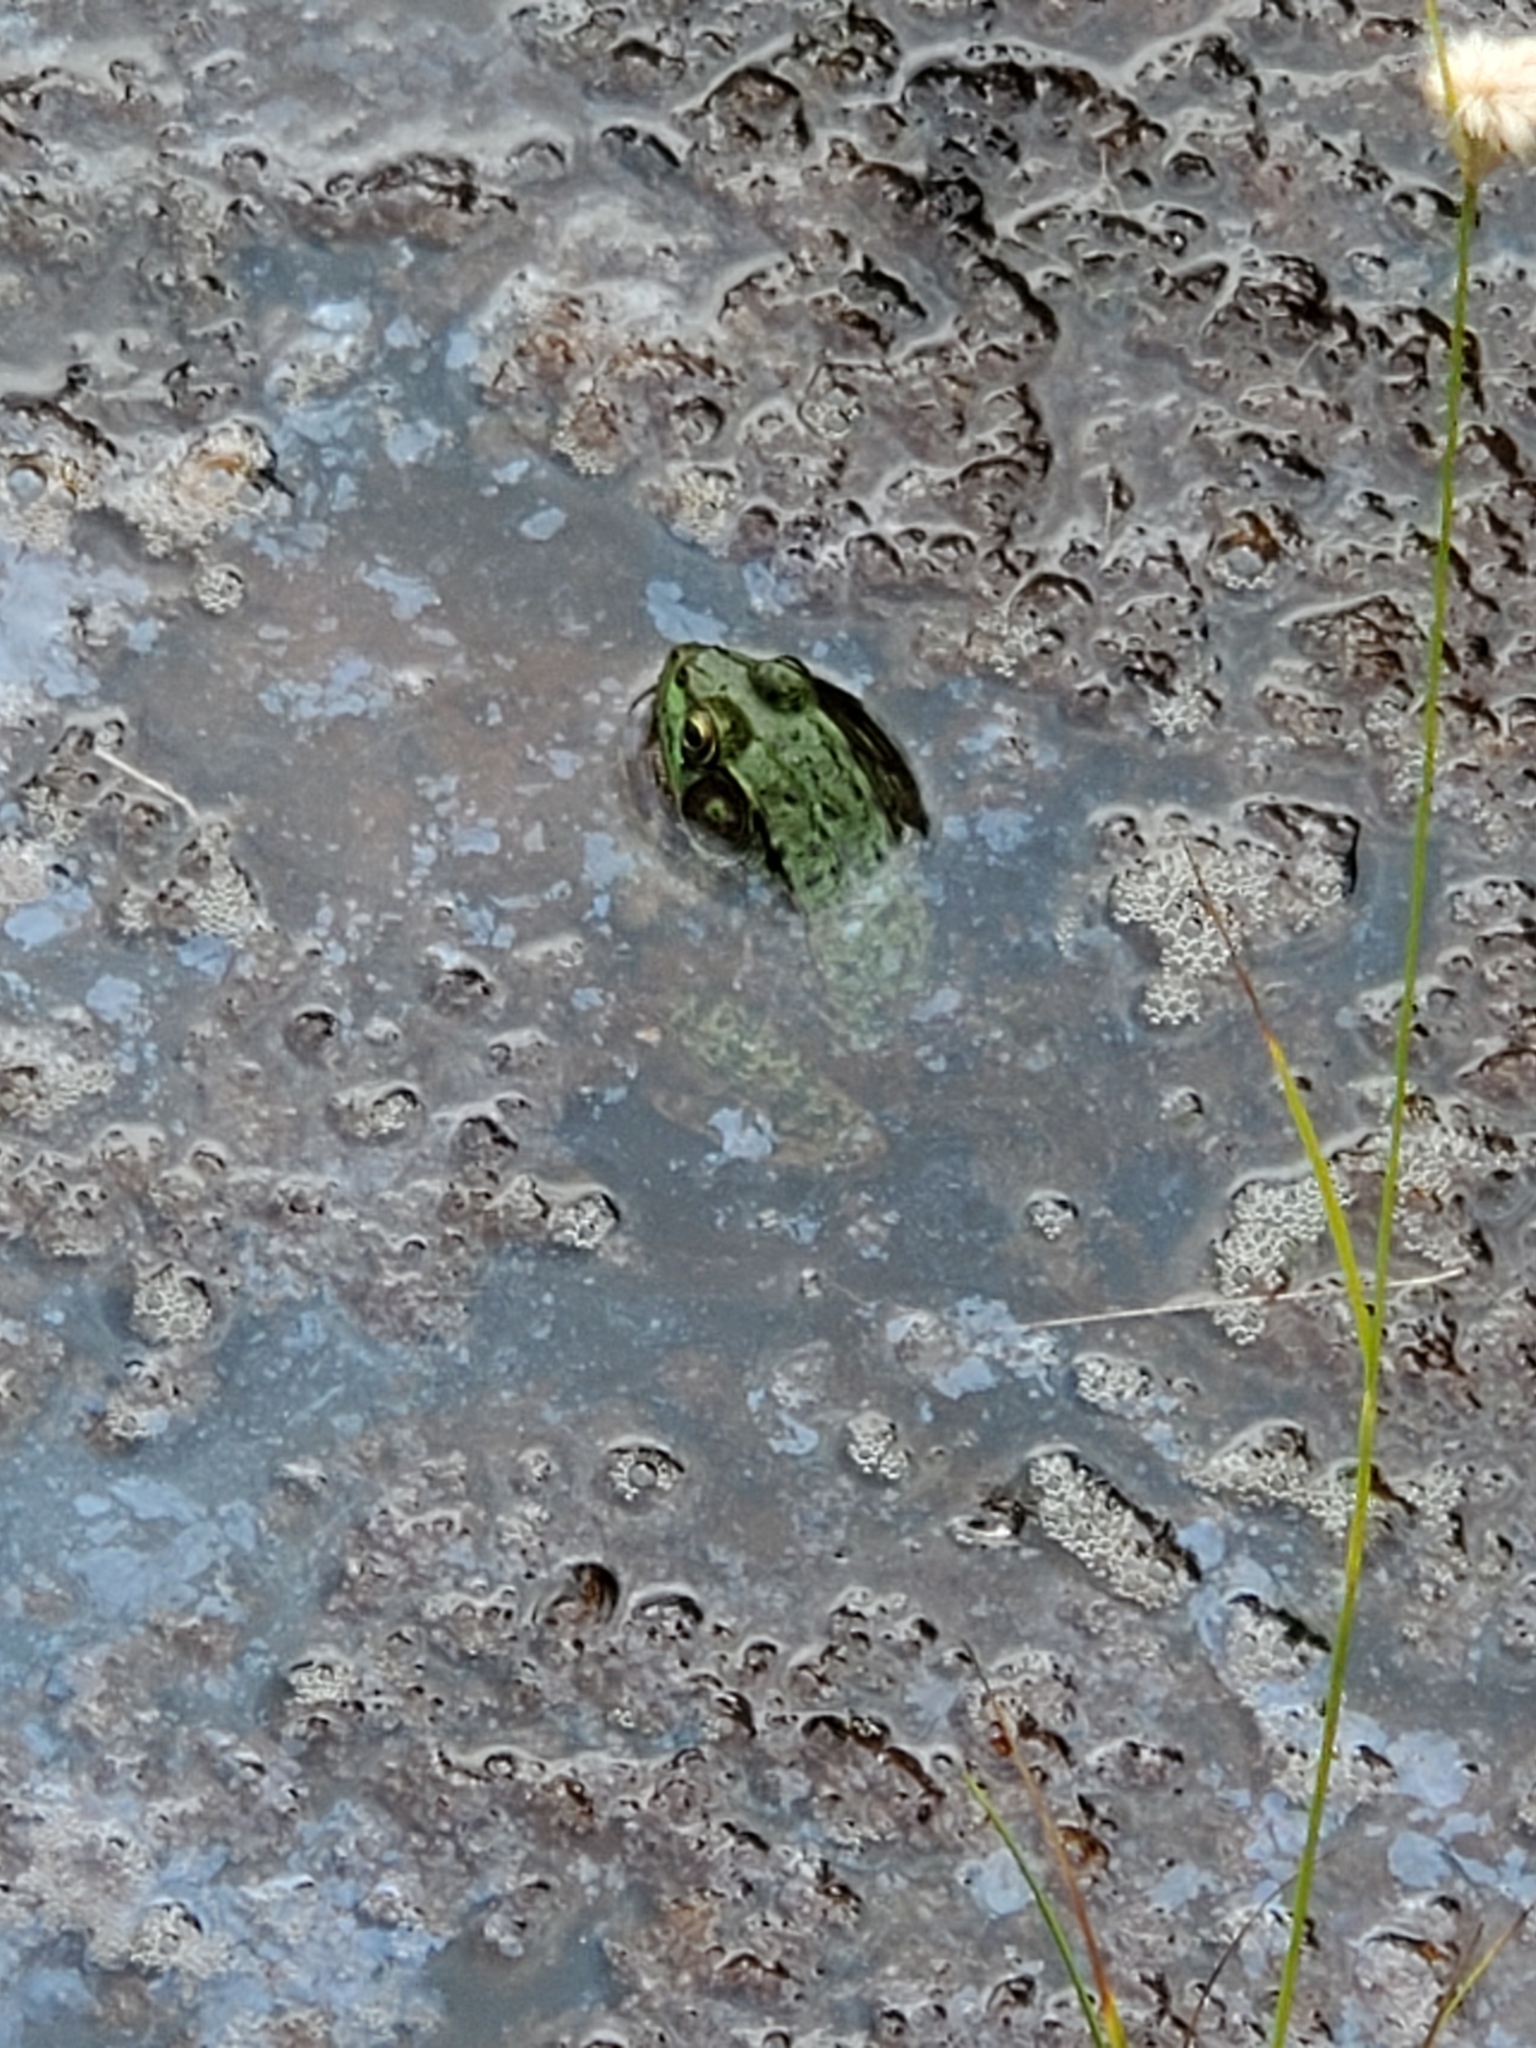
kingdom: Animalia
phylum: Chordata
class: Amphibia
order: Anura
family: Ranidae
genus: Lithobates
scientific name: Lithobates clamitans
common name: Green frog
